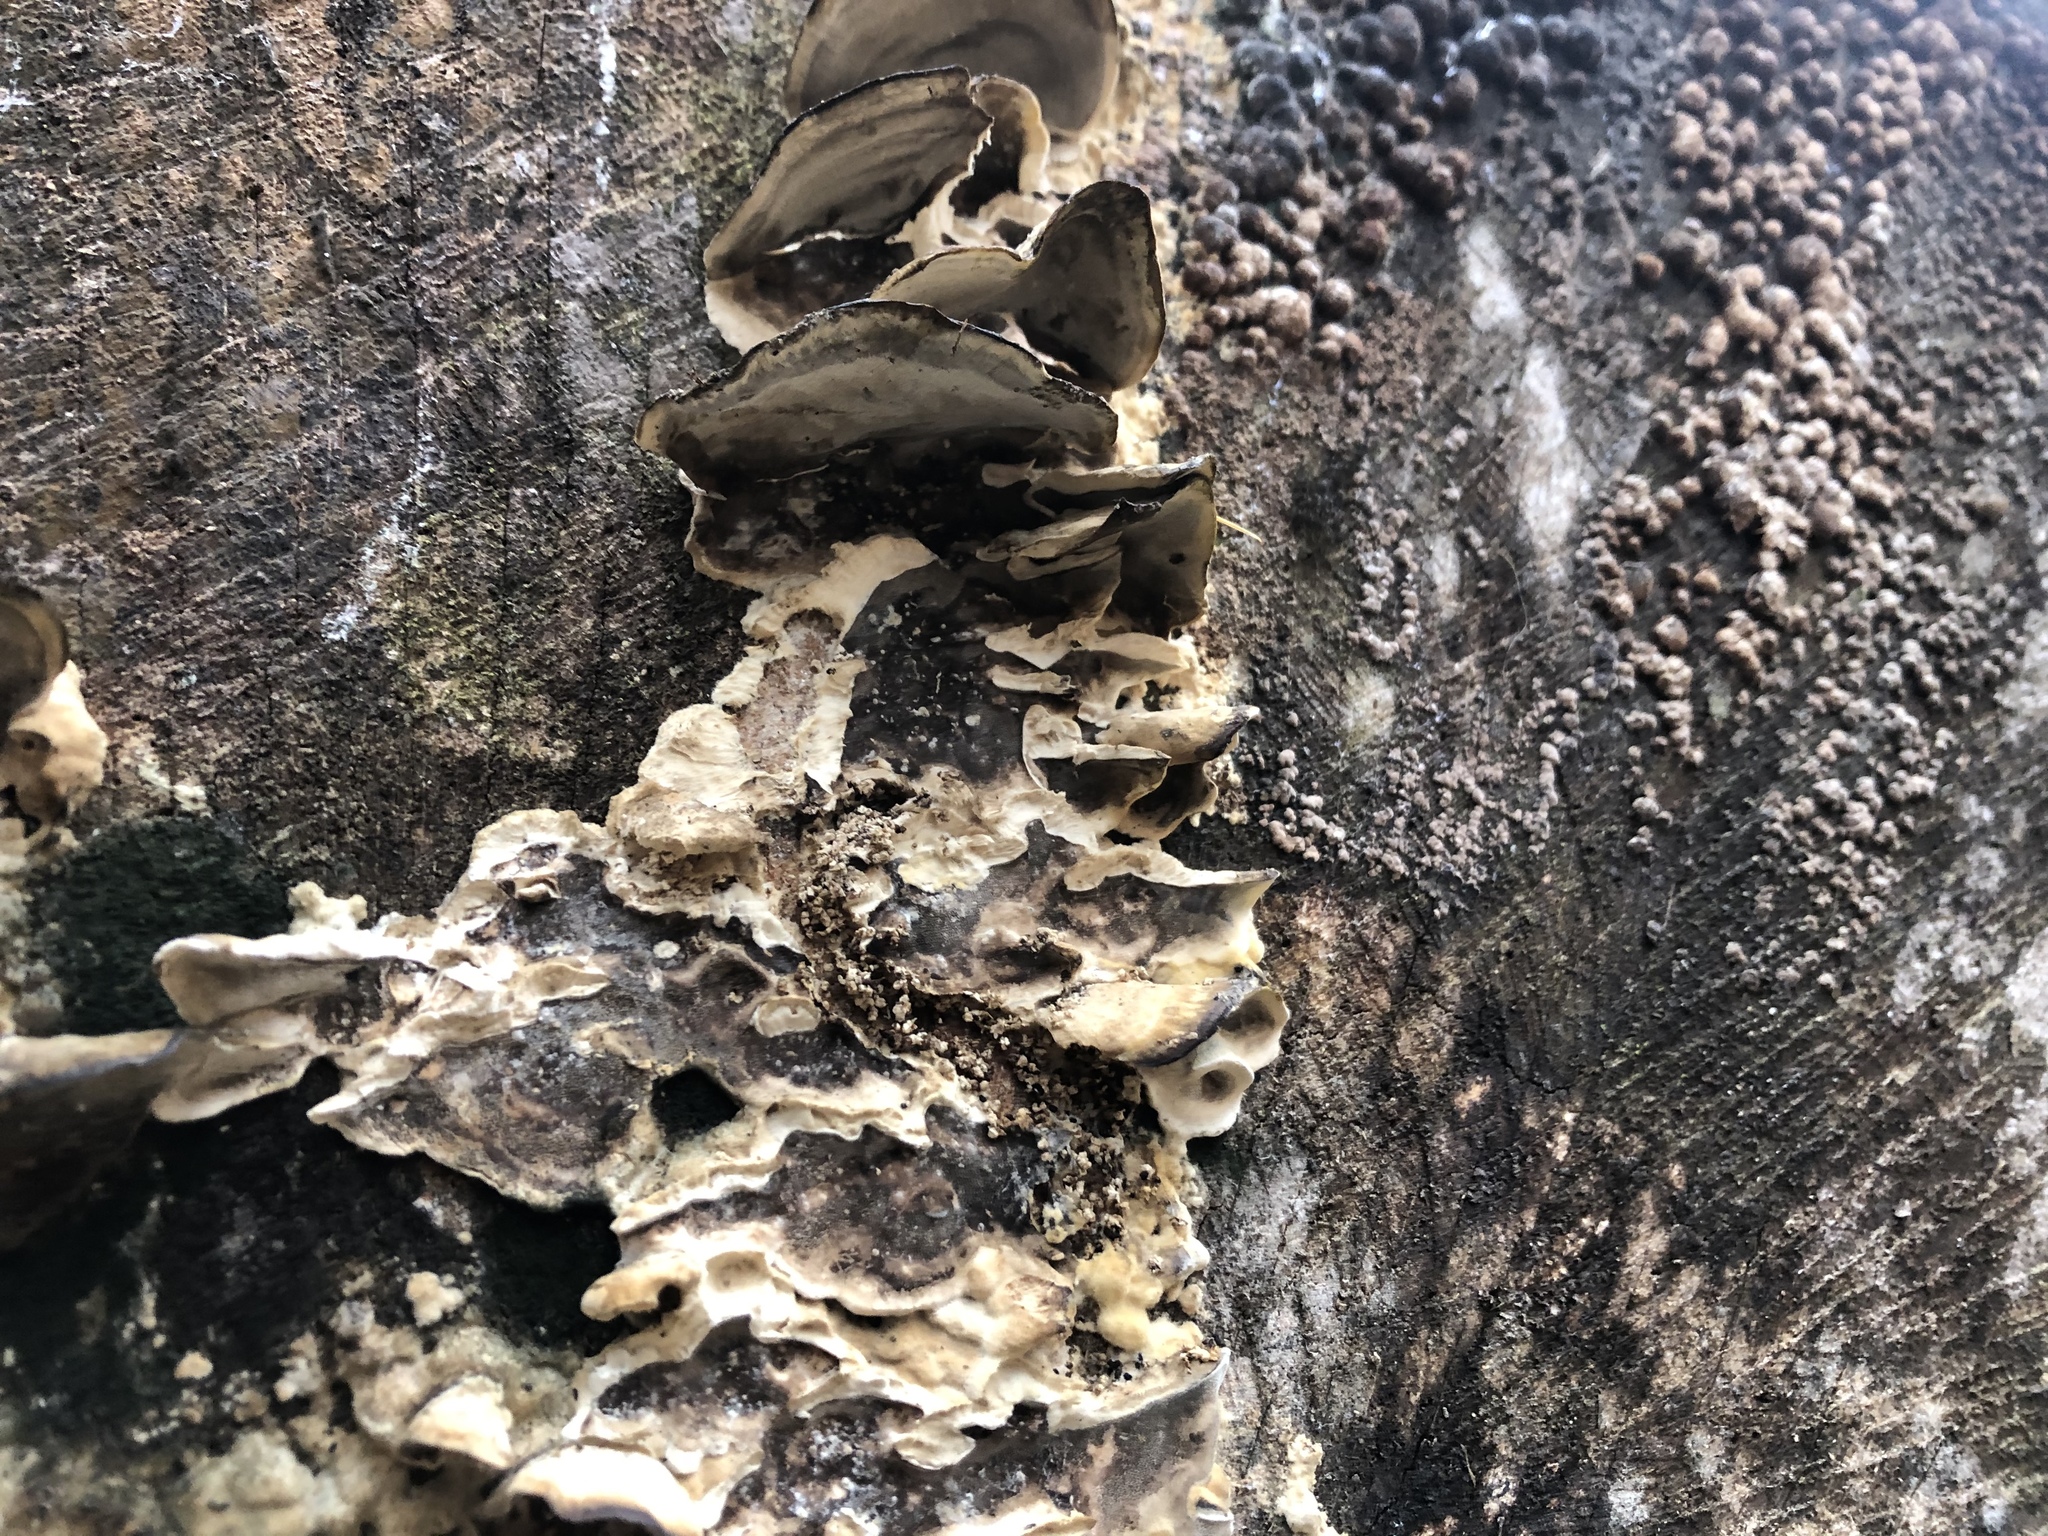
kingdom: Fungi
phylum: Basidiomycota
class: Agaricomycetes
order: Polyporales
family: Phanerochaetaceae
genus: Bjerkandera
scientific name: Bjerkandera adusta
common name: Smoky bracket
